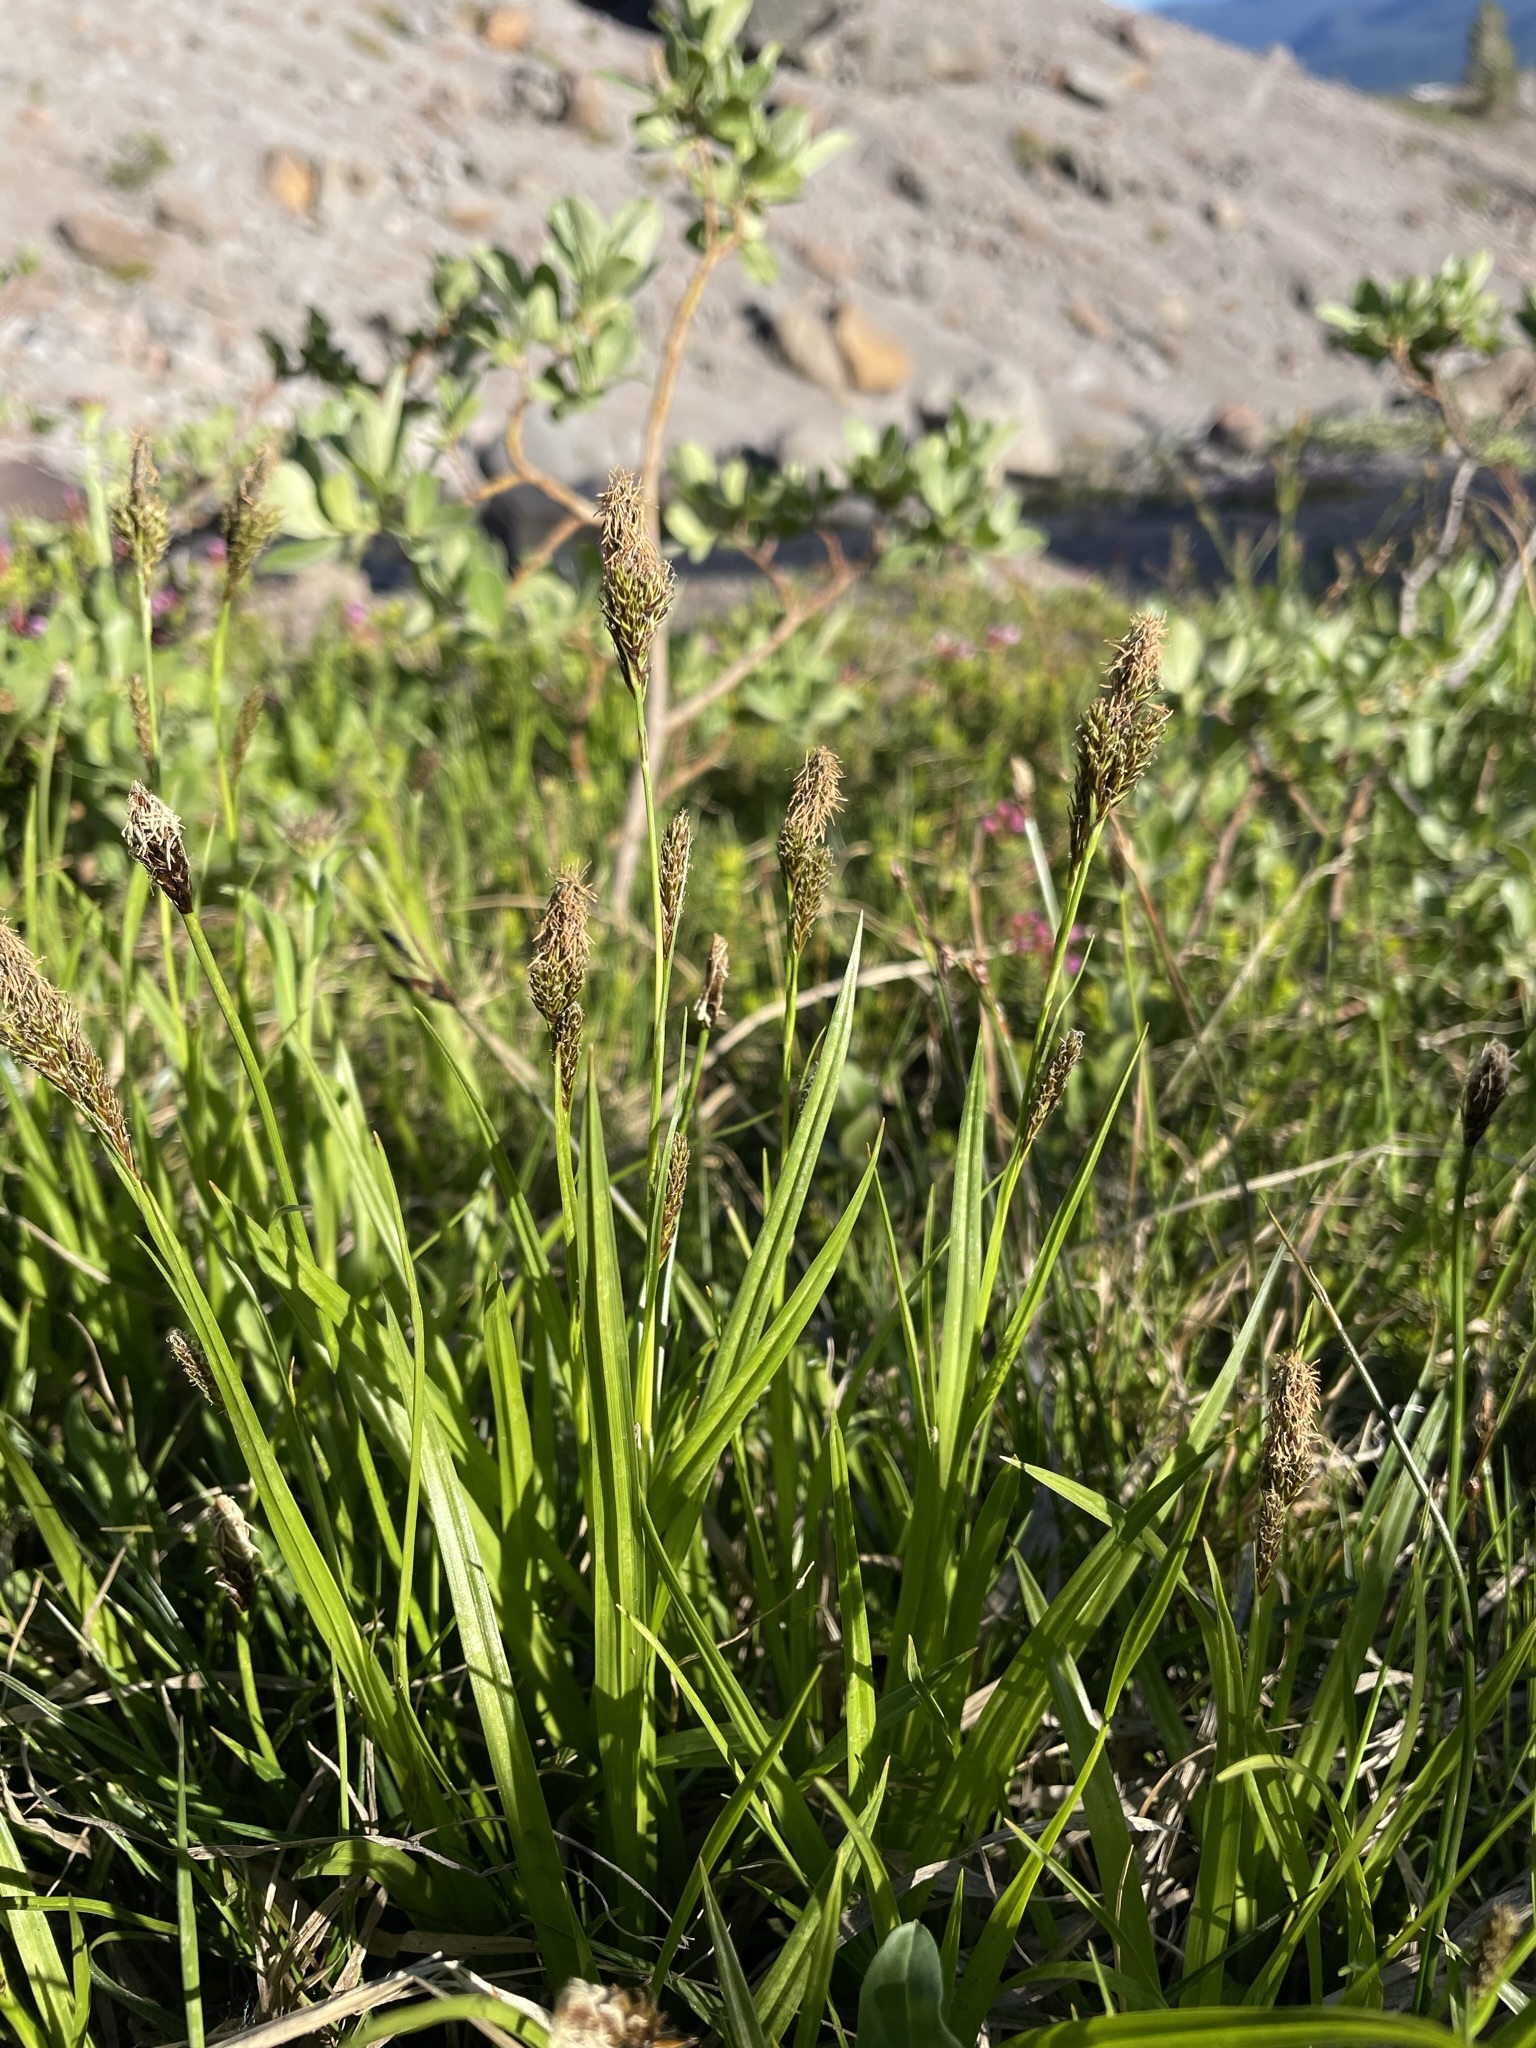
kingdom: Plantae
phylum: Tracheophyta
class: Liliopsida
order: Poales
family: Cyperaceae
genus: Carex
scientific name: Carex luzulina
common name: Spring sedge
